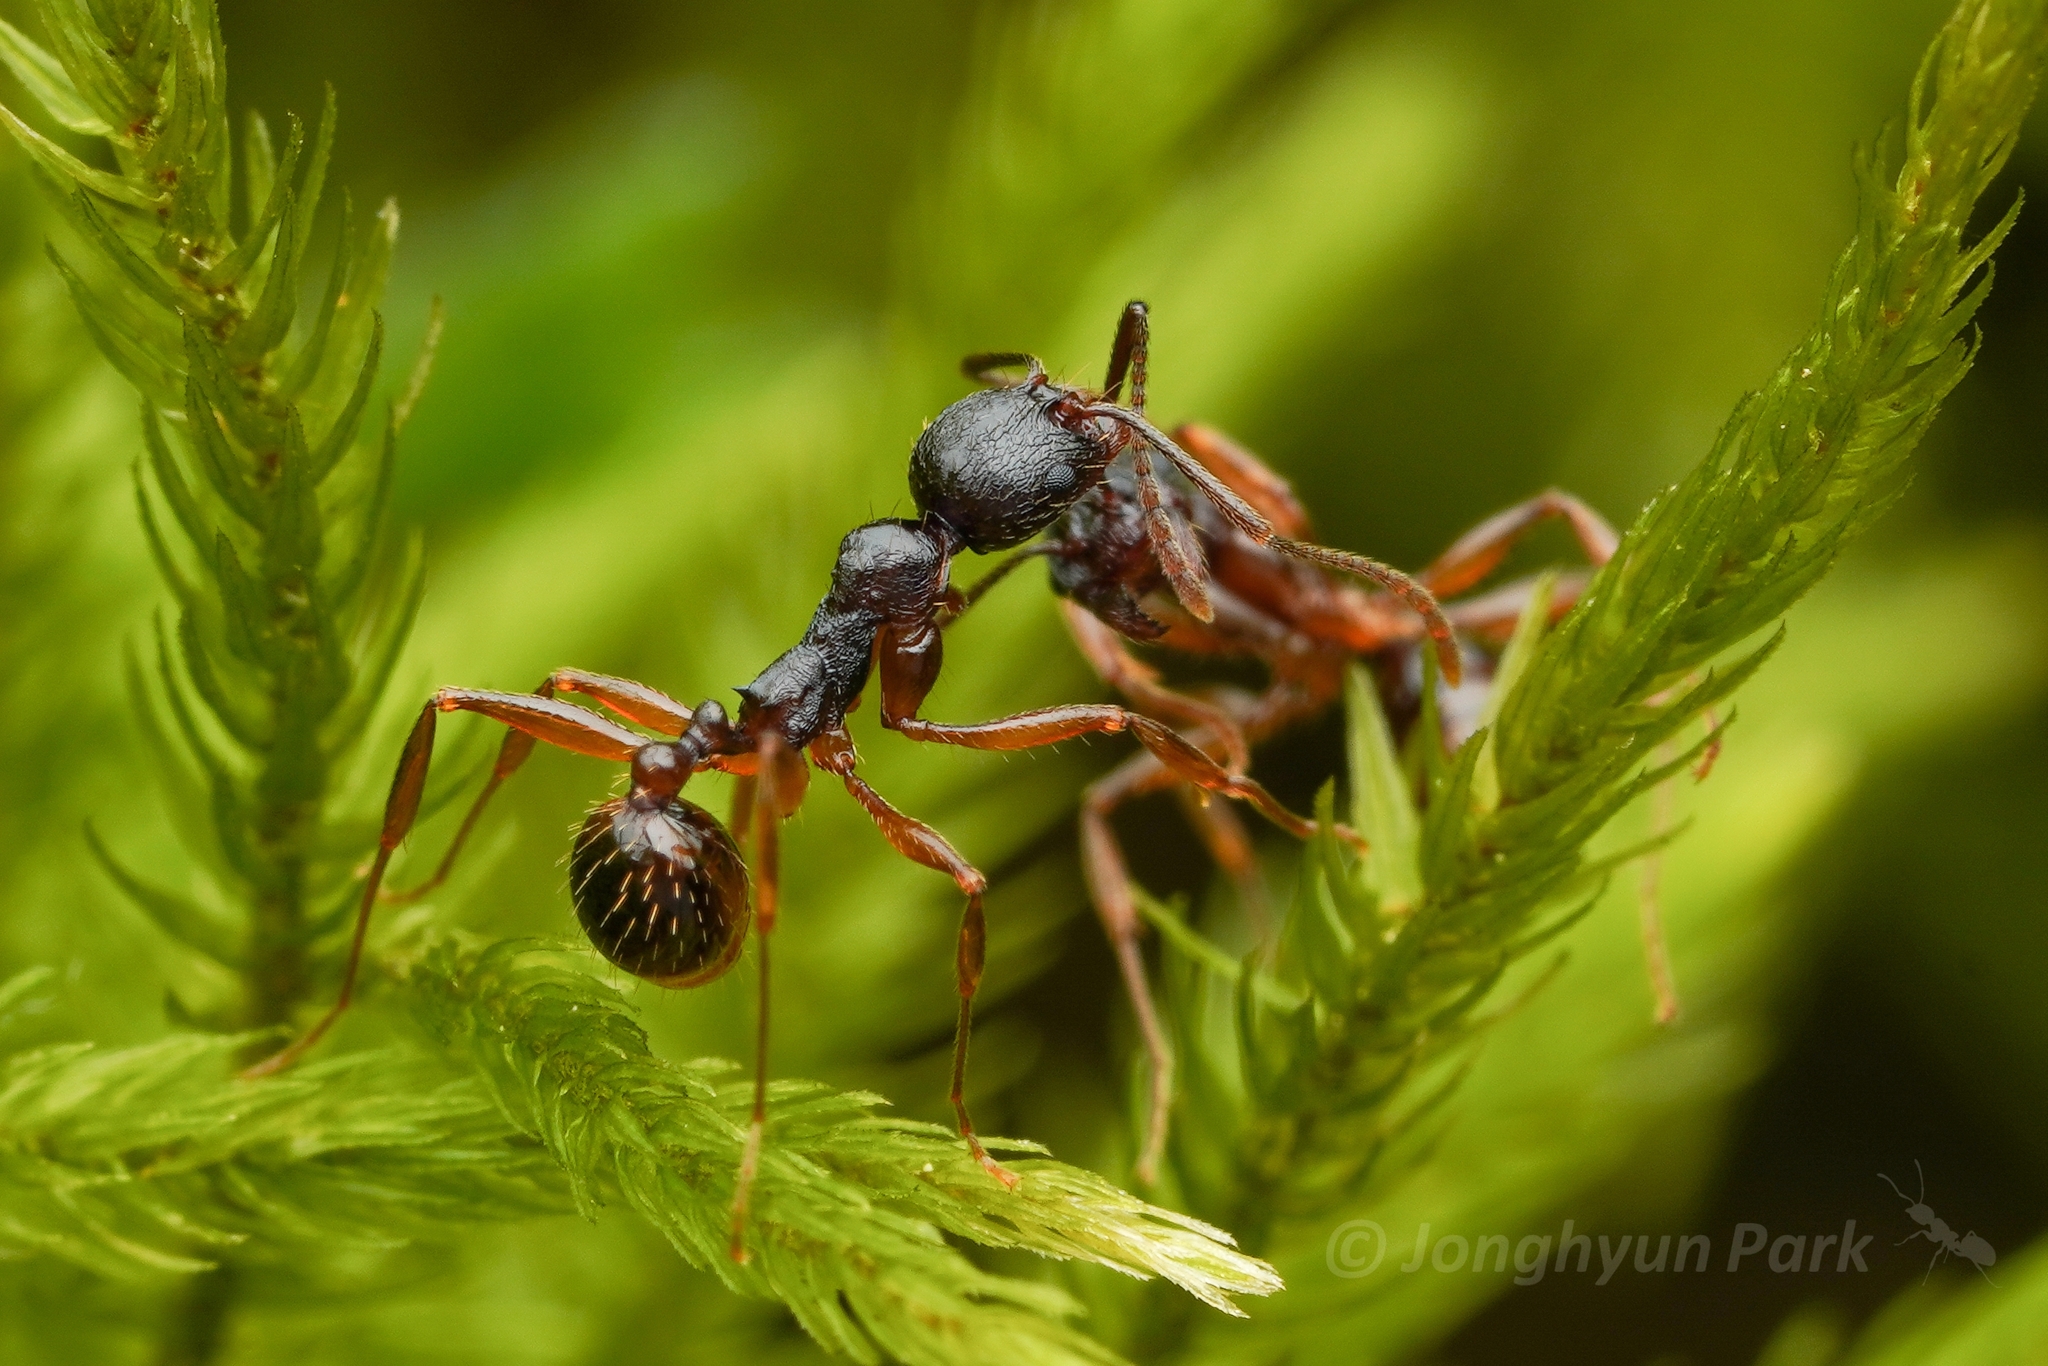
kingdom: Animalia
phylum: Arthropoda
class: Insecta
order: Hymenoptera
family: Formicidae
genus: Aphaenogaster
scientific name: Aphaenogaster japonica
